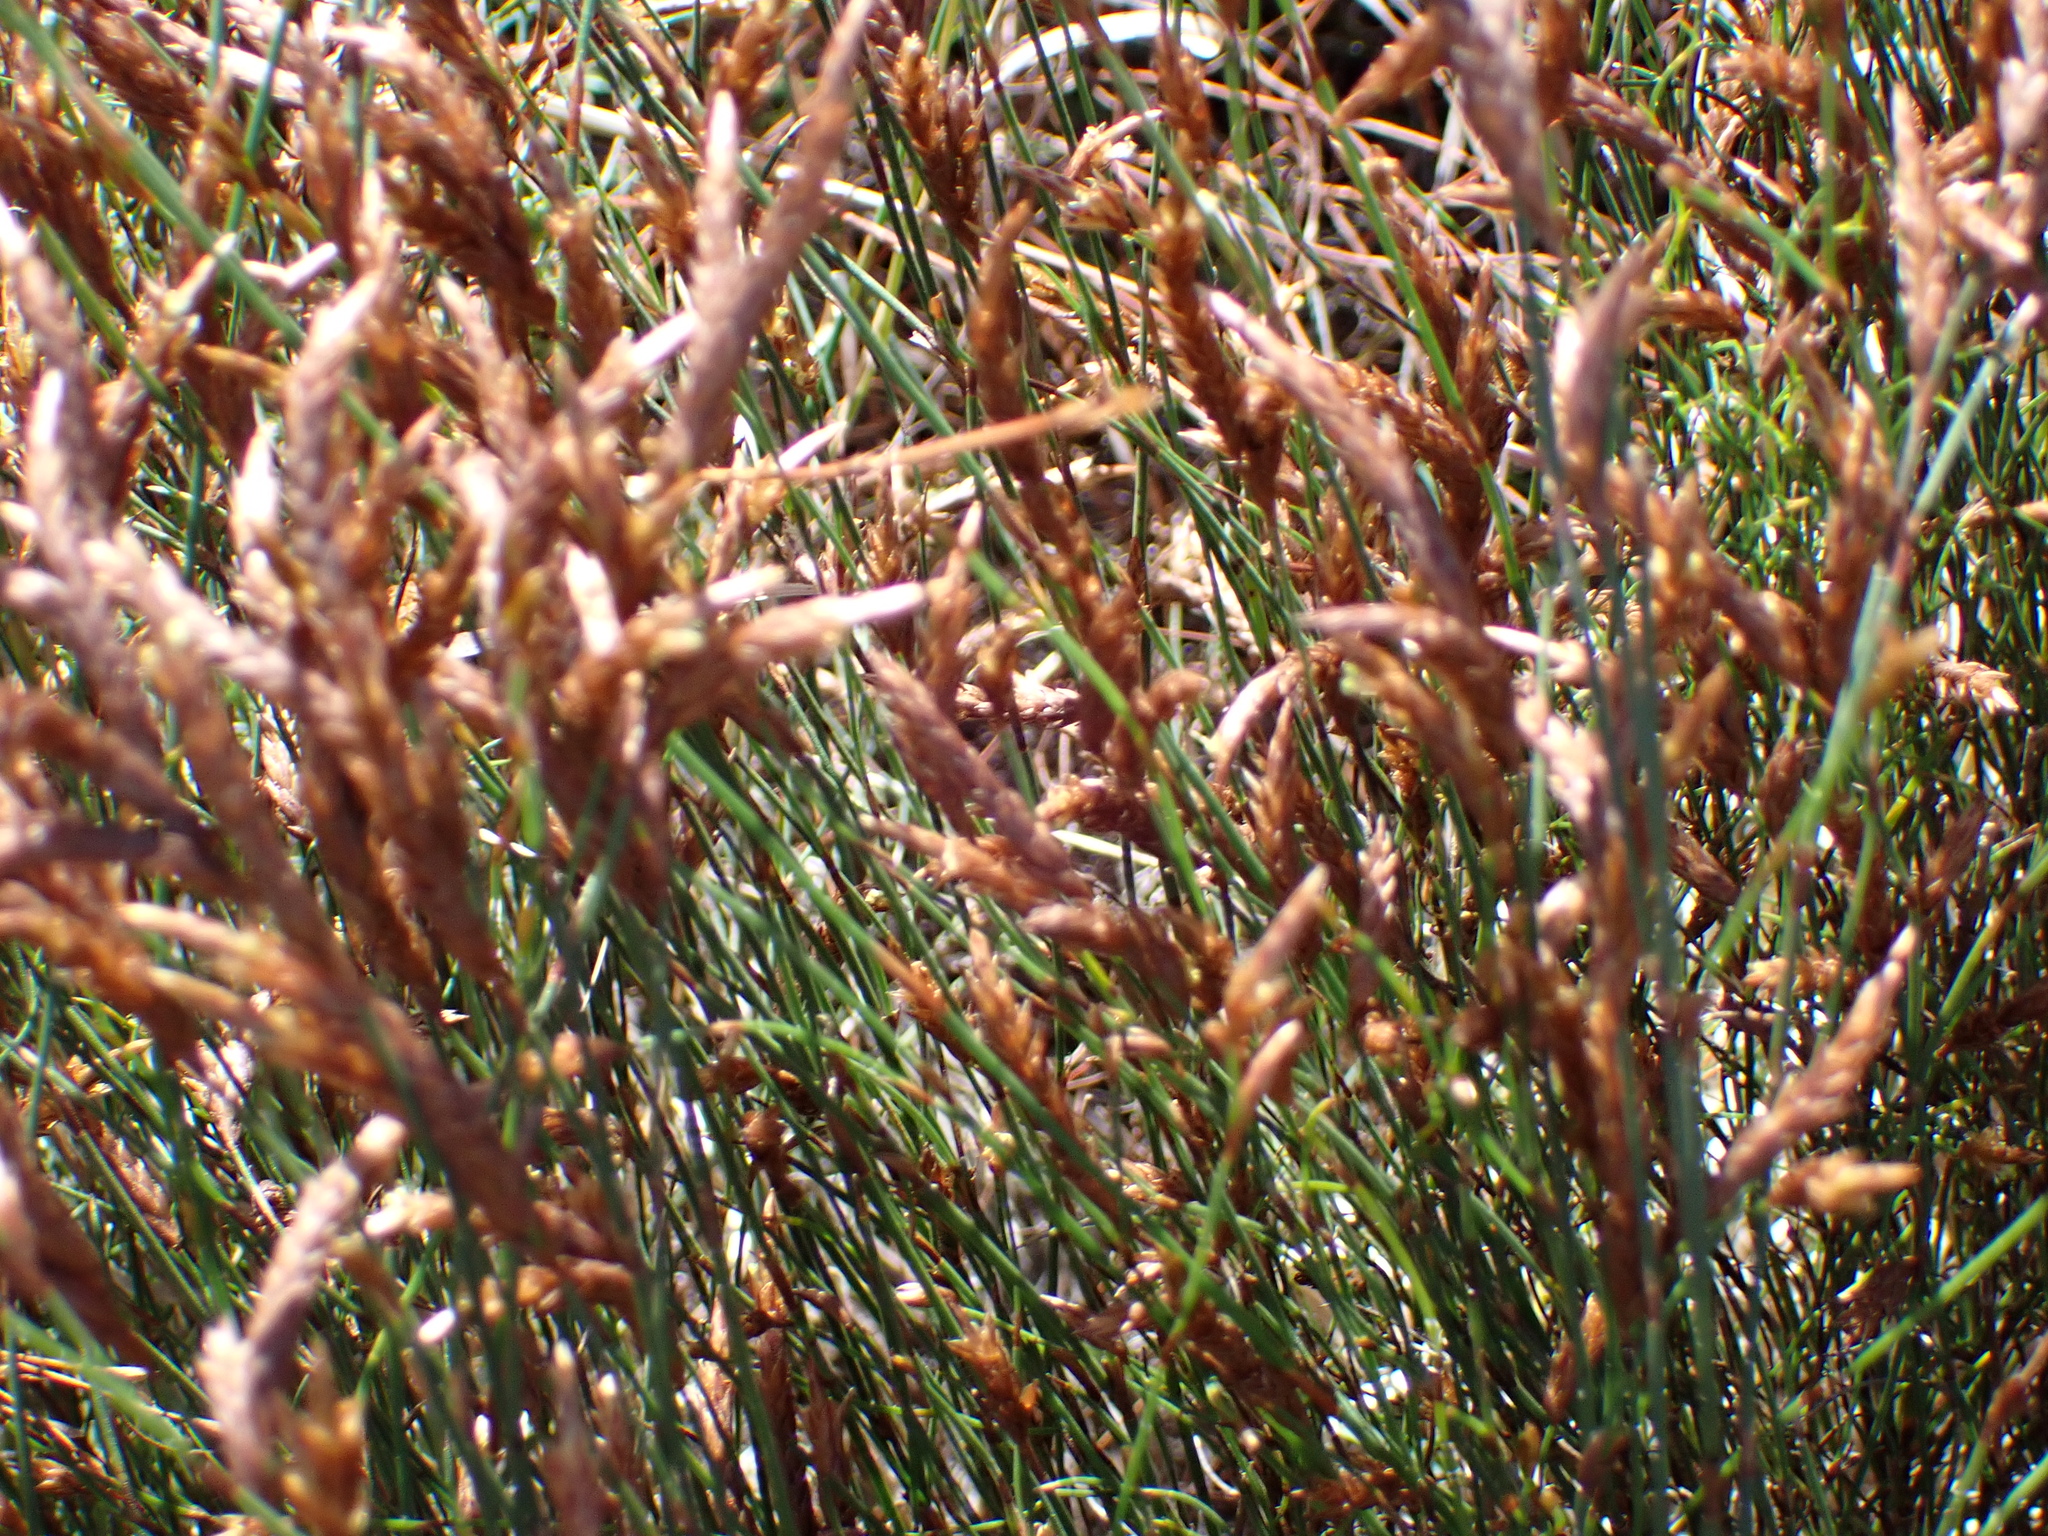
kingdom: Plantae
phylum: Tracheophyta
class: Liliopsida
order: Poales
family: Restionaceae
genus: Restio
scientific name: Restio albotuberculatus
